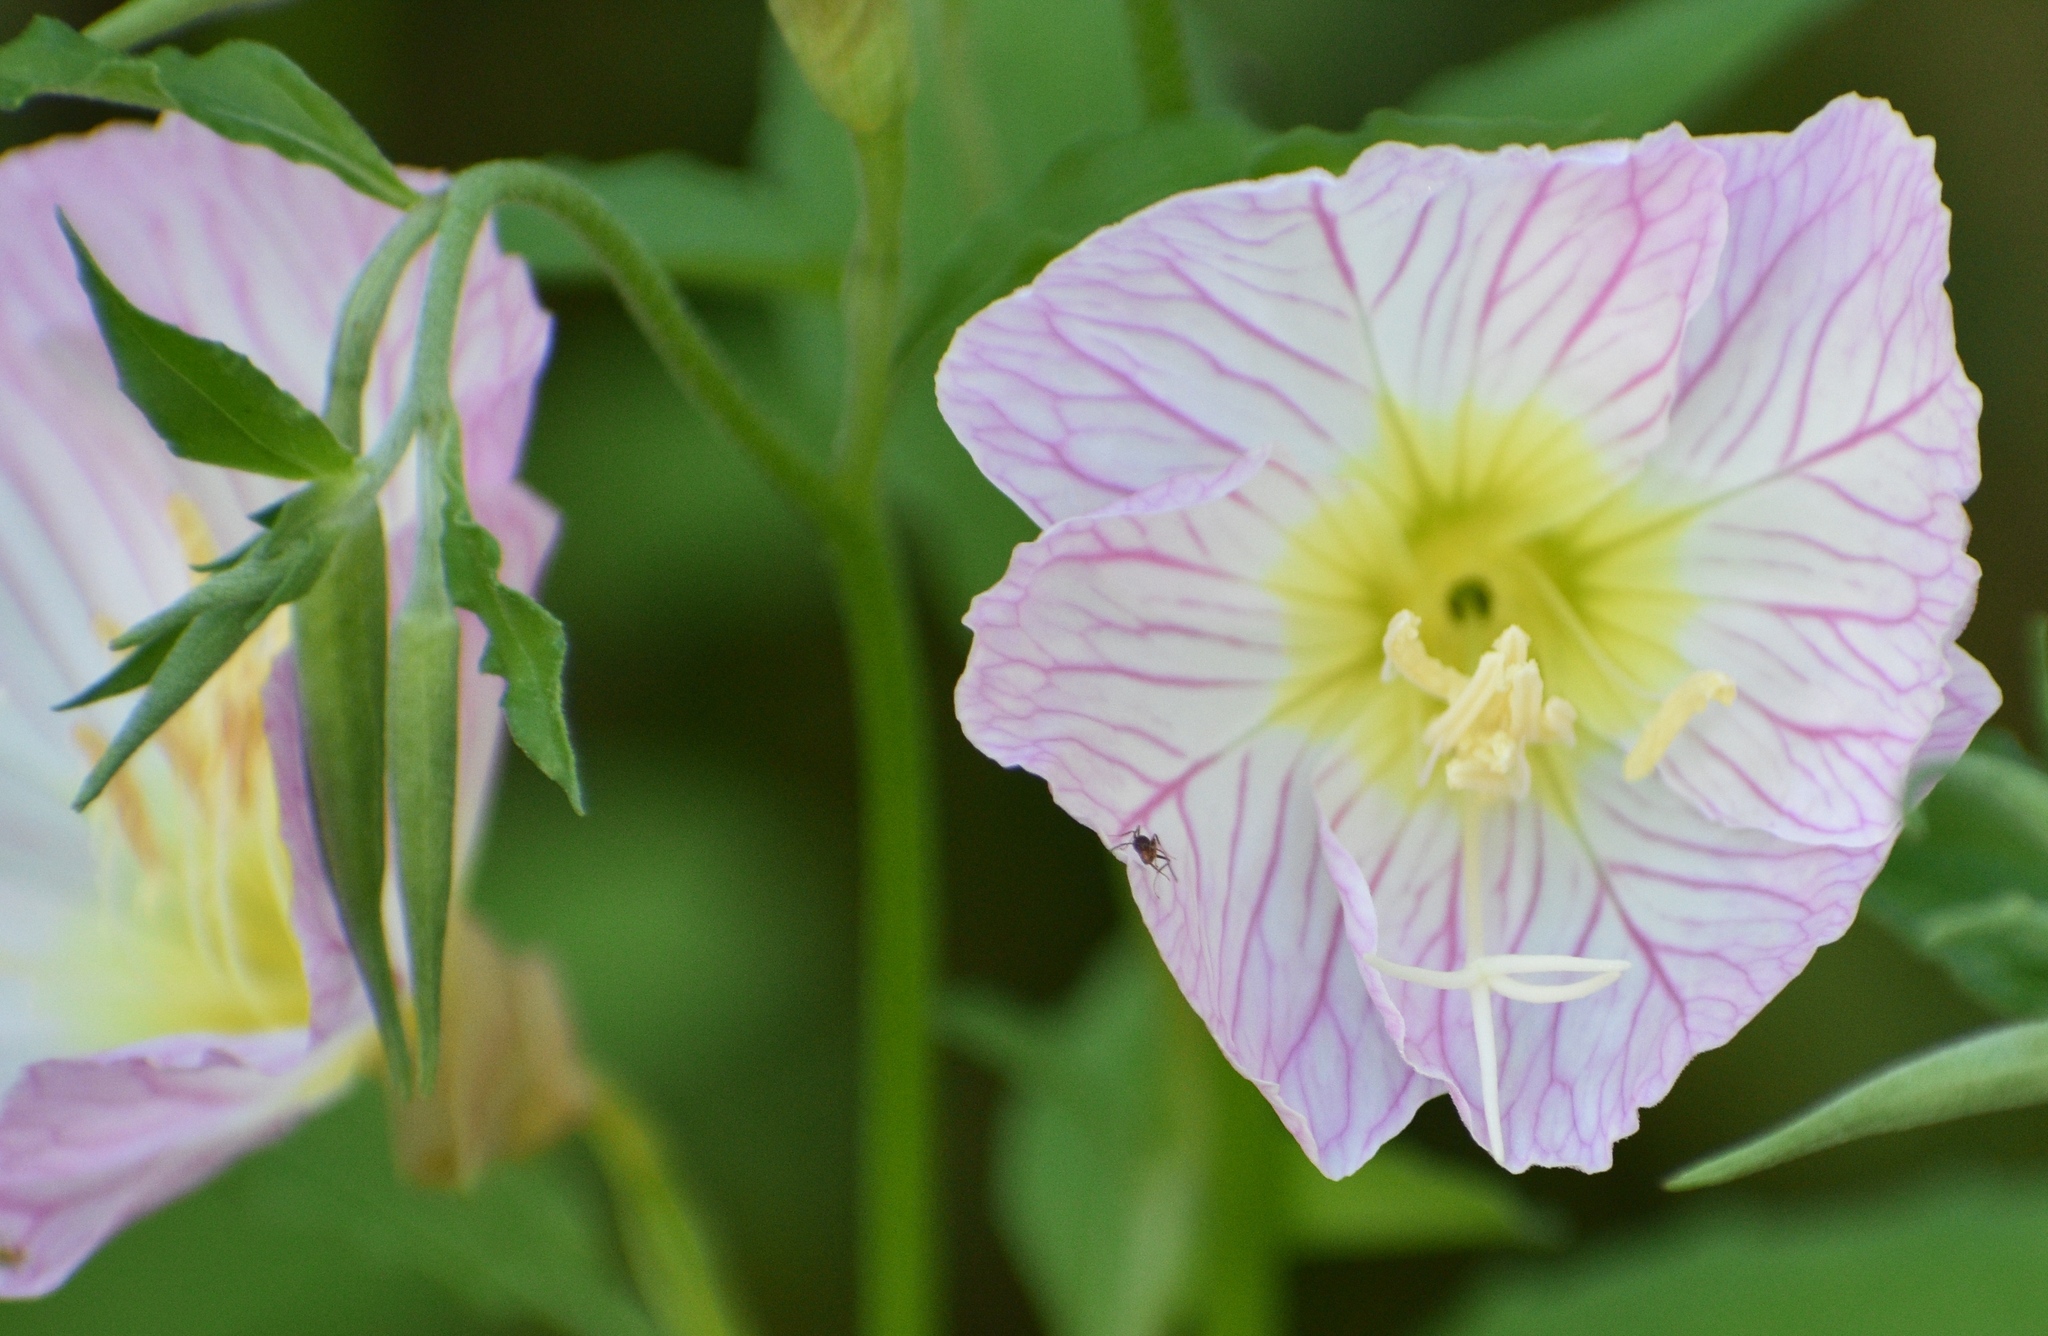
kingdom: Plantae
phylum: Tracheophyta
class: Magnoliopsida
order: Myrtales
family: Onagraceae
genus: Oenothera
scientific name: Oenothera speciosa
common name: White evening-primrose
